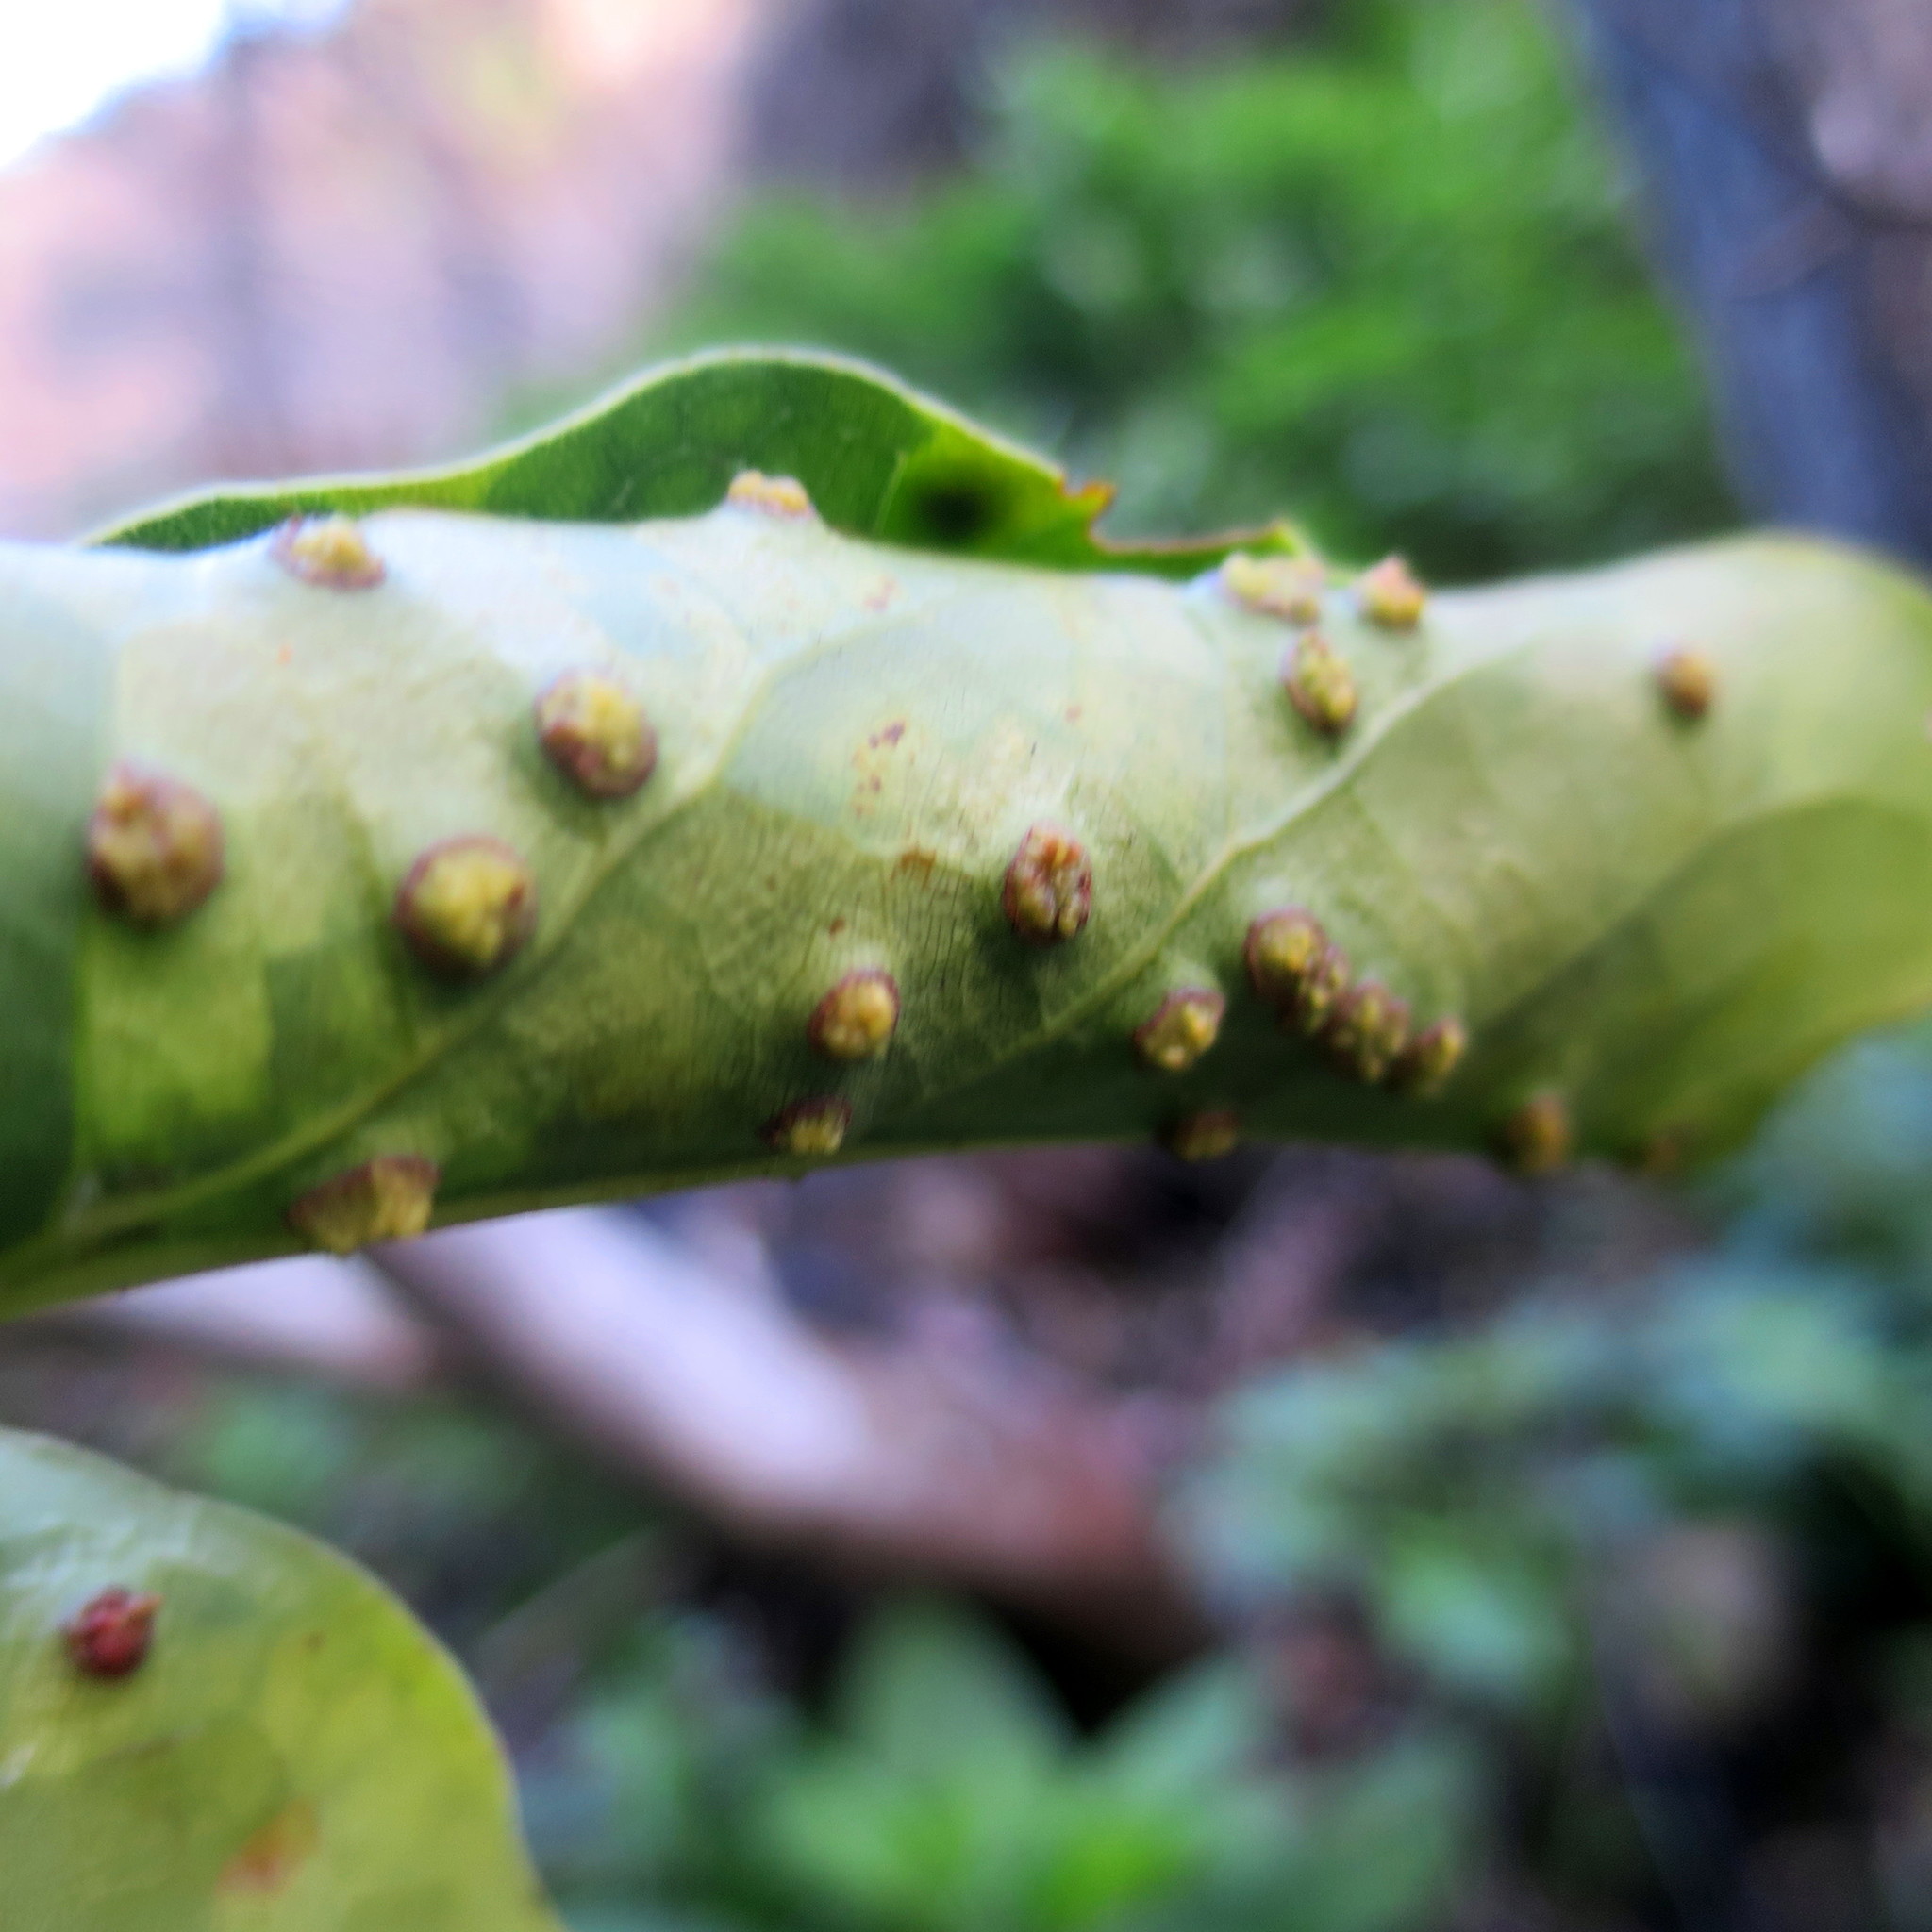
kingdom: Plantae
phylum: Tracheophyta
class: Magnoliopsida
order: Laurales
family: Lauraceae
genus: Ocotea
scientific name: Ocotea bullata
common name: Black stinkwood
